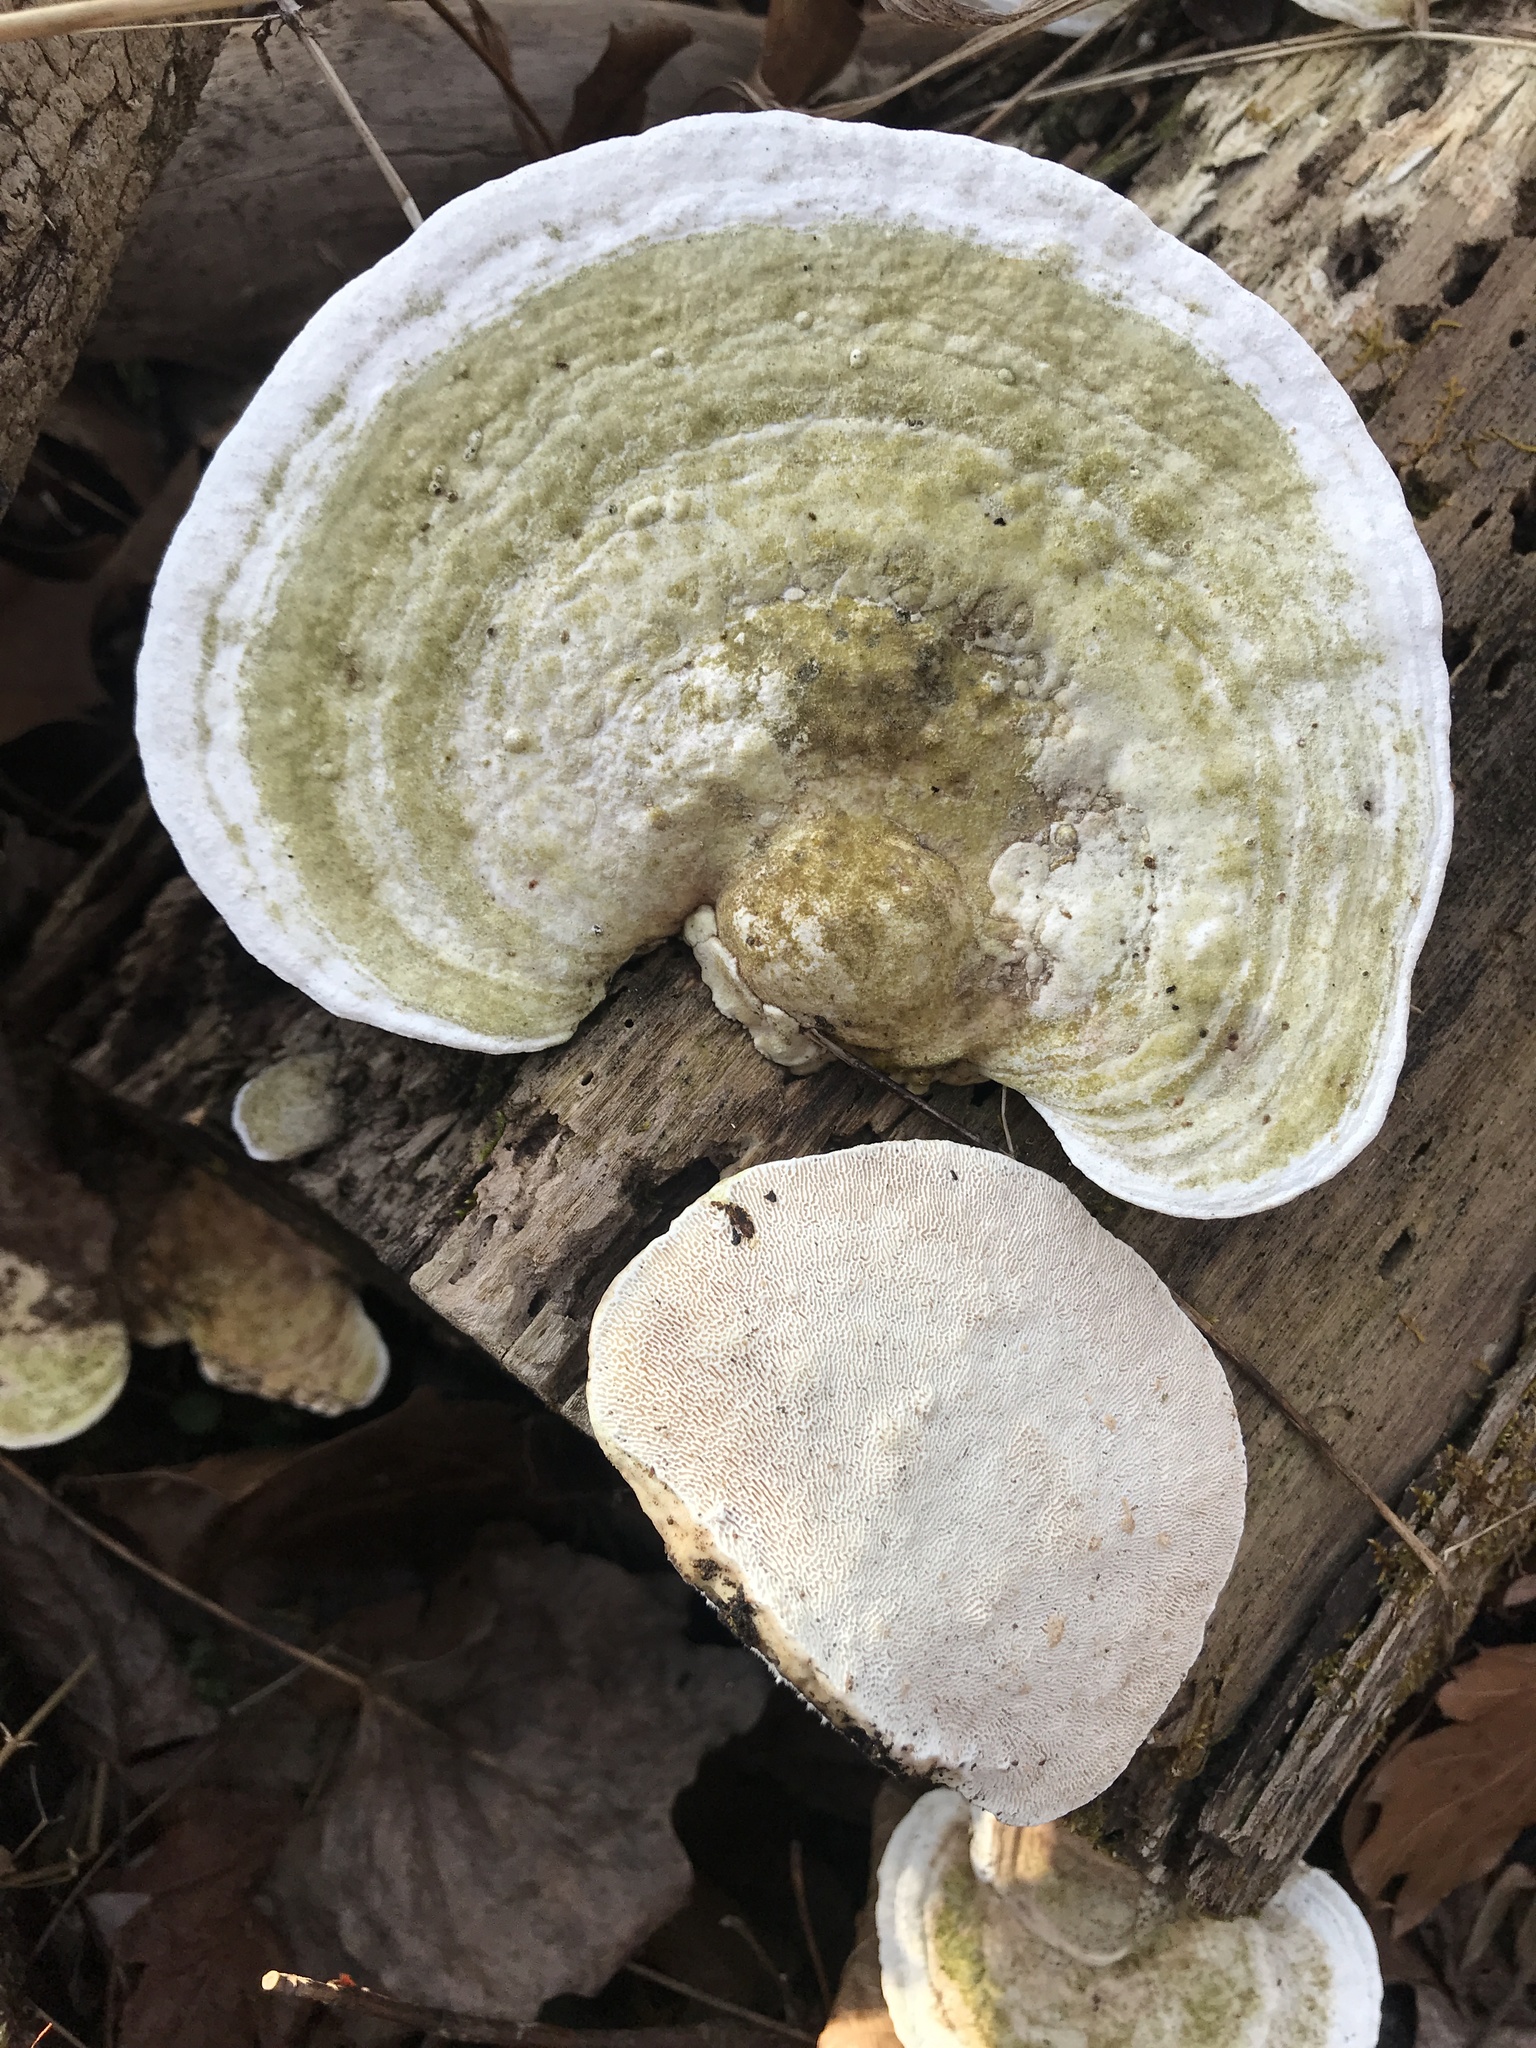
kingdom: Fungi
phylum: Basidiomycota
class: Agaricomycetes
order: Polyporales
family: Polyporaceae
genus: Trametes
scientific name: Trametes gibbosa
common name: Lumpy bracket
